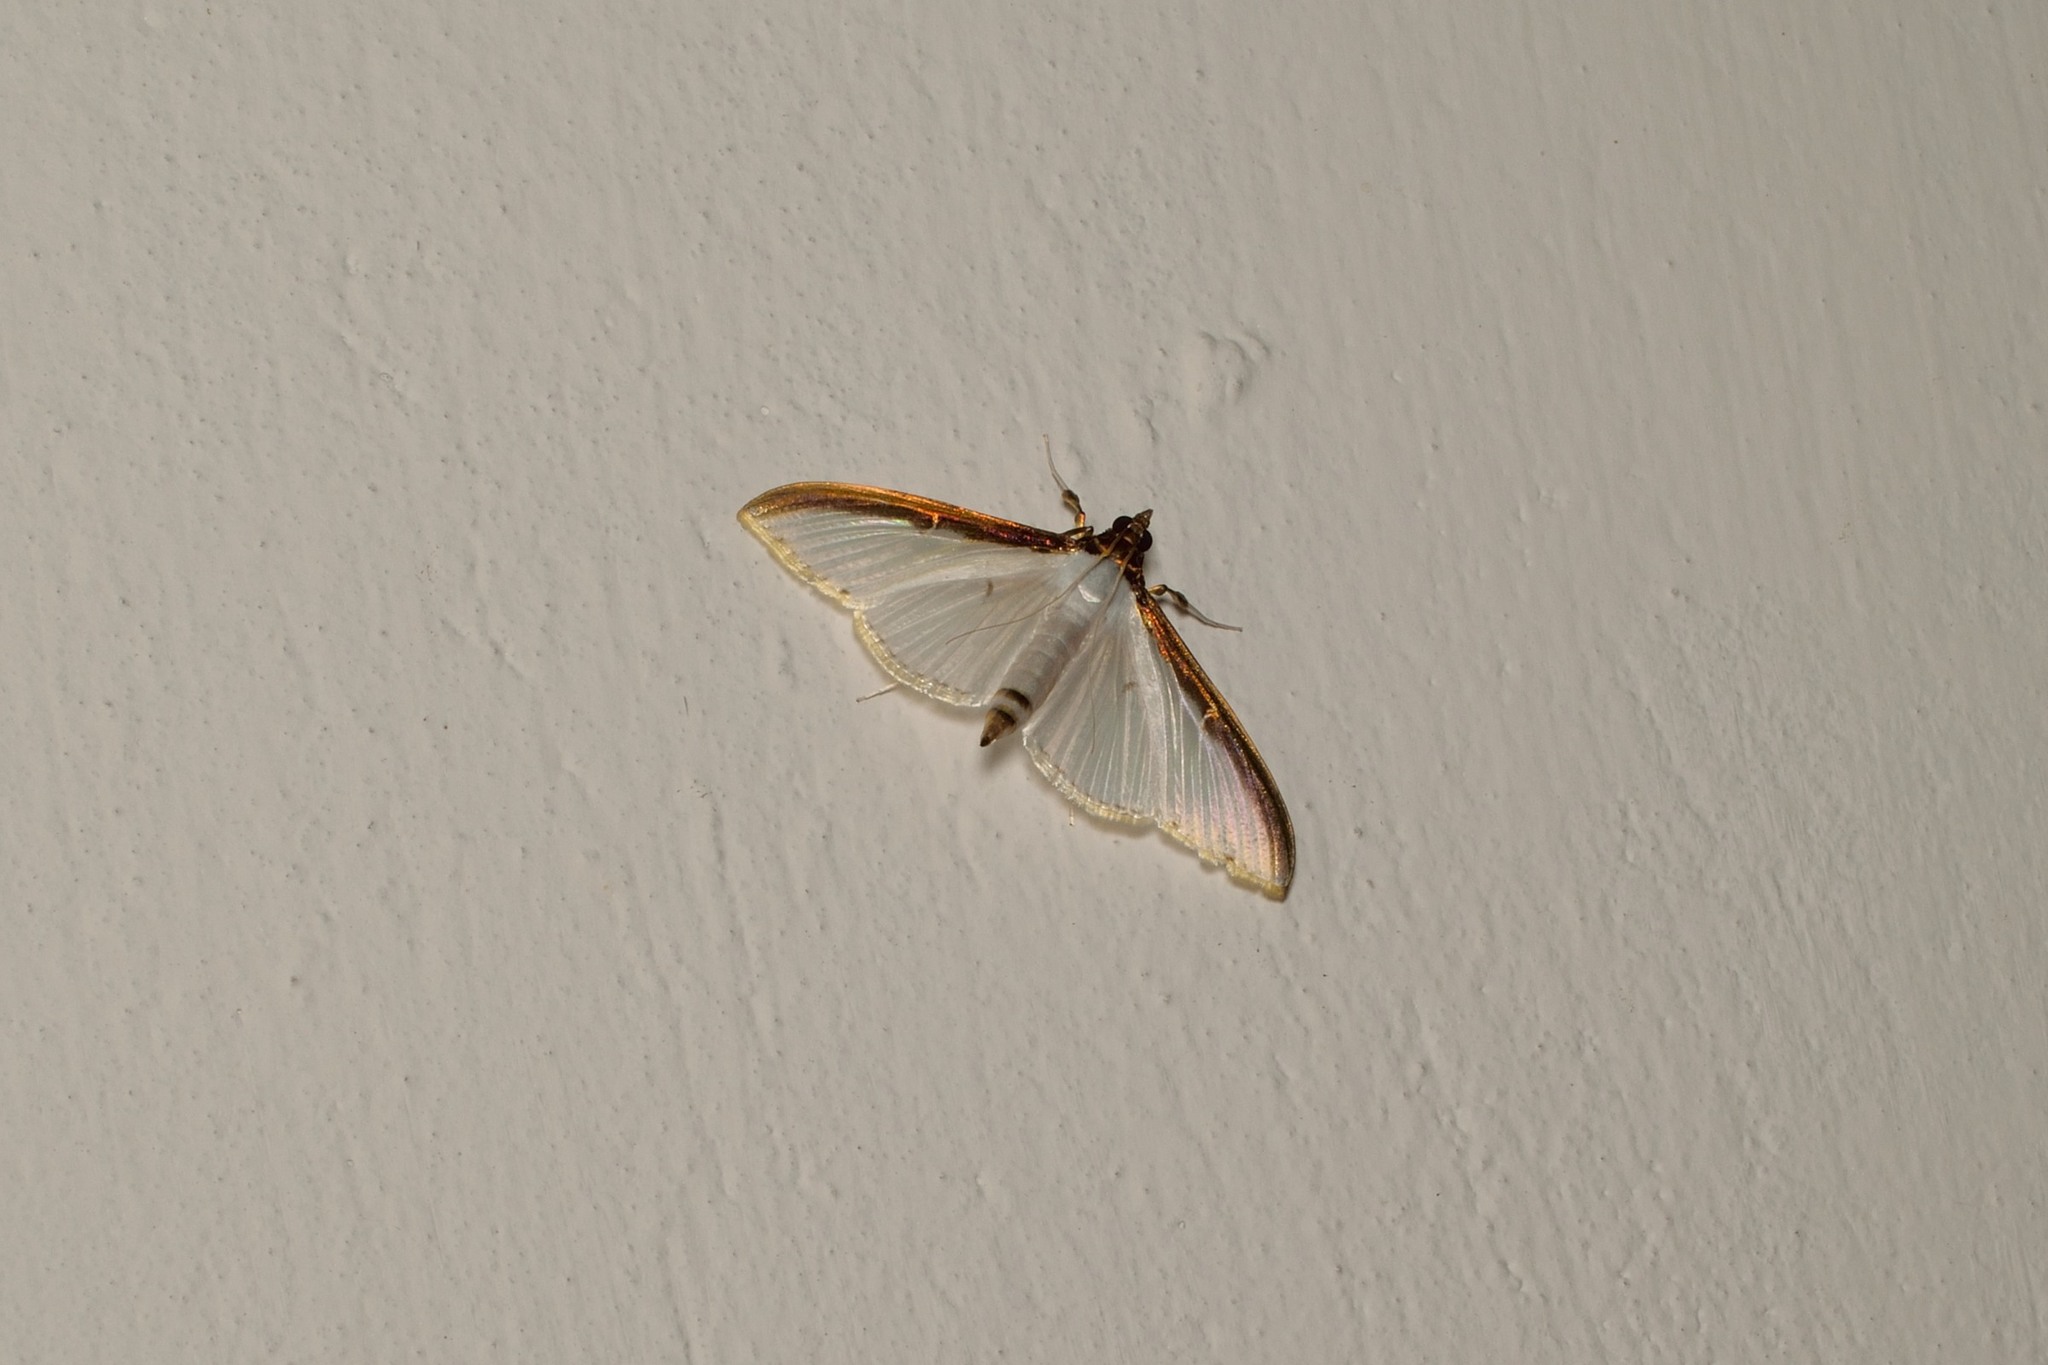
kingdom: Animalia
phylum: Arthropoda
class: Insecta
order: Lepidoptera
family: Crambidae
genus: Cydalima
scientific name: Cydalima laticostalis
